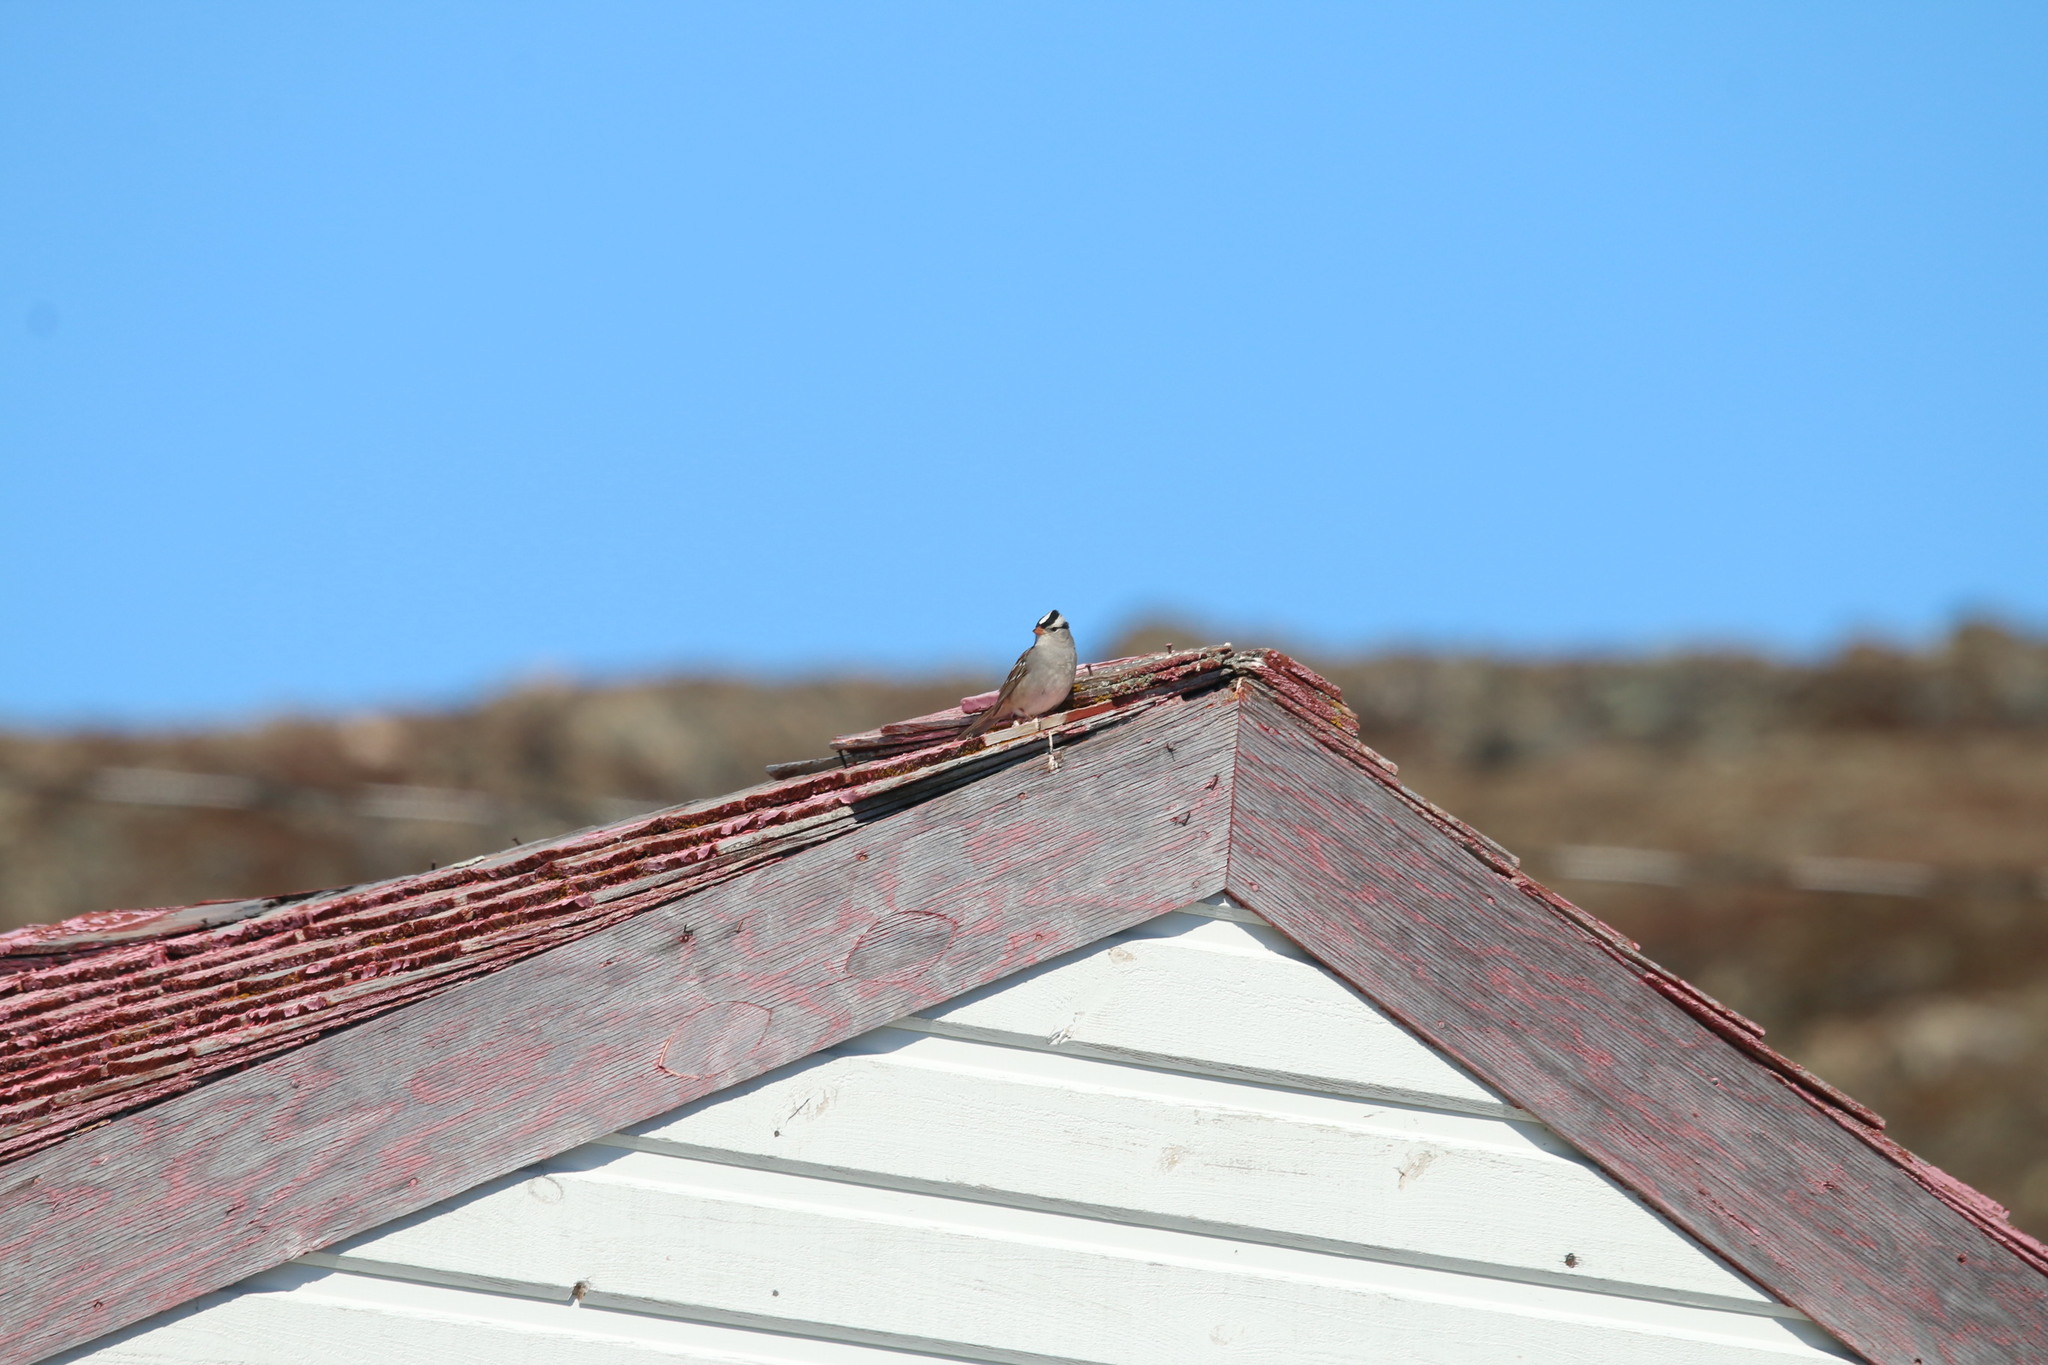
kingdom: Animalia
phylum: Chordata
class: Aves
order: Passeriformes
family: Passerellidae
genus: Zonotrichia
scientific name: Zonotrichia leucophrys
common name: White-crowned sparrow
